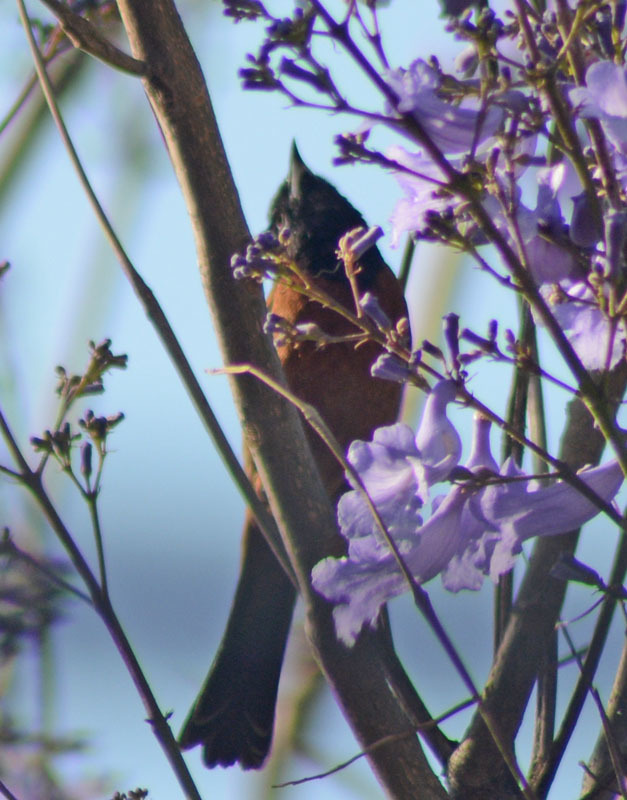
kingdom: Animalia
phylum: Chordata
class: Aves
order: Passeriformes
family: Icteridae
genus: Icterus
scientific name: Icterus spurius
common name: Orchard oriole
